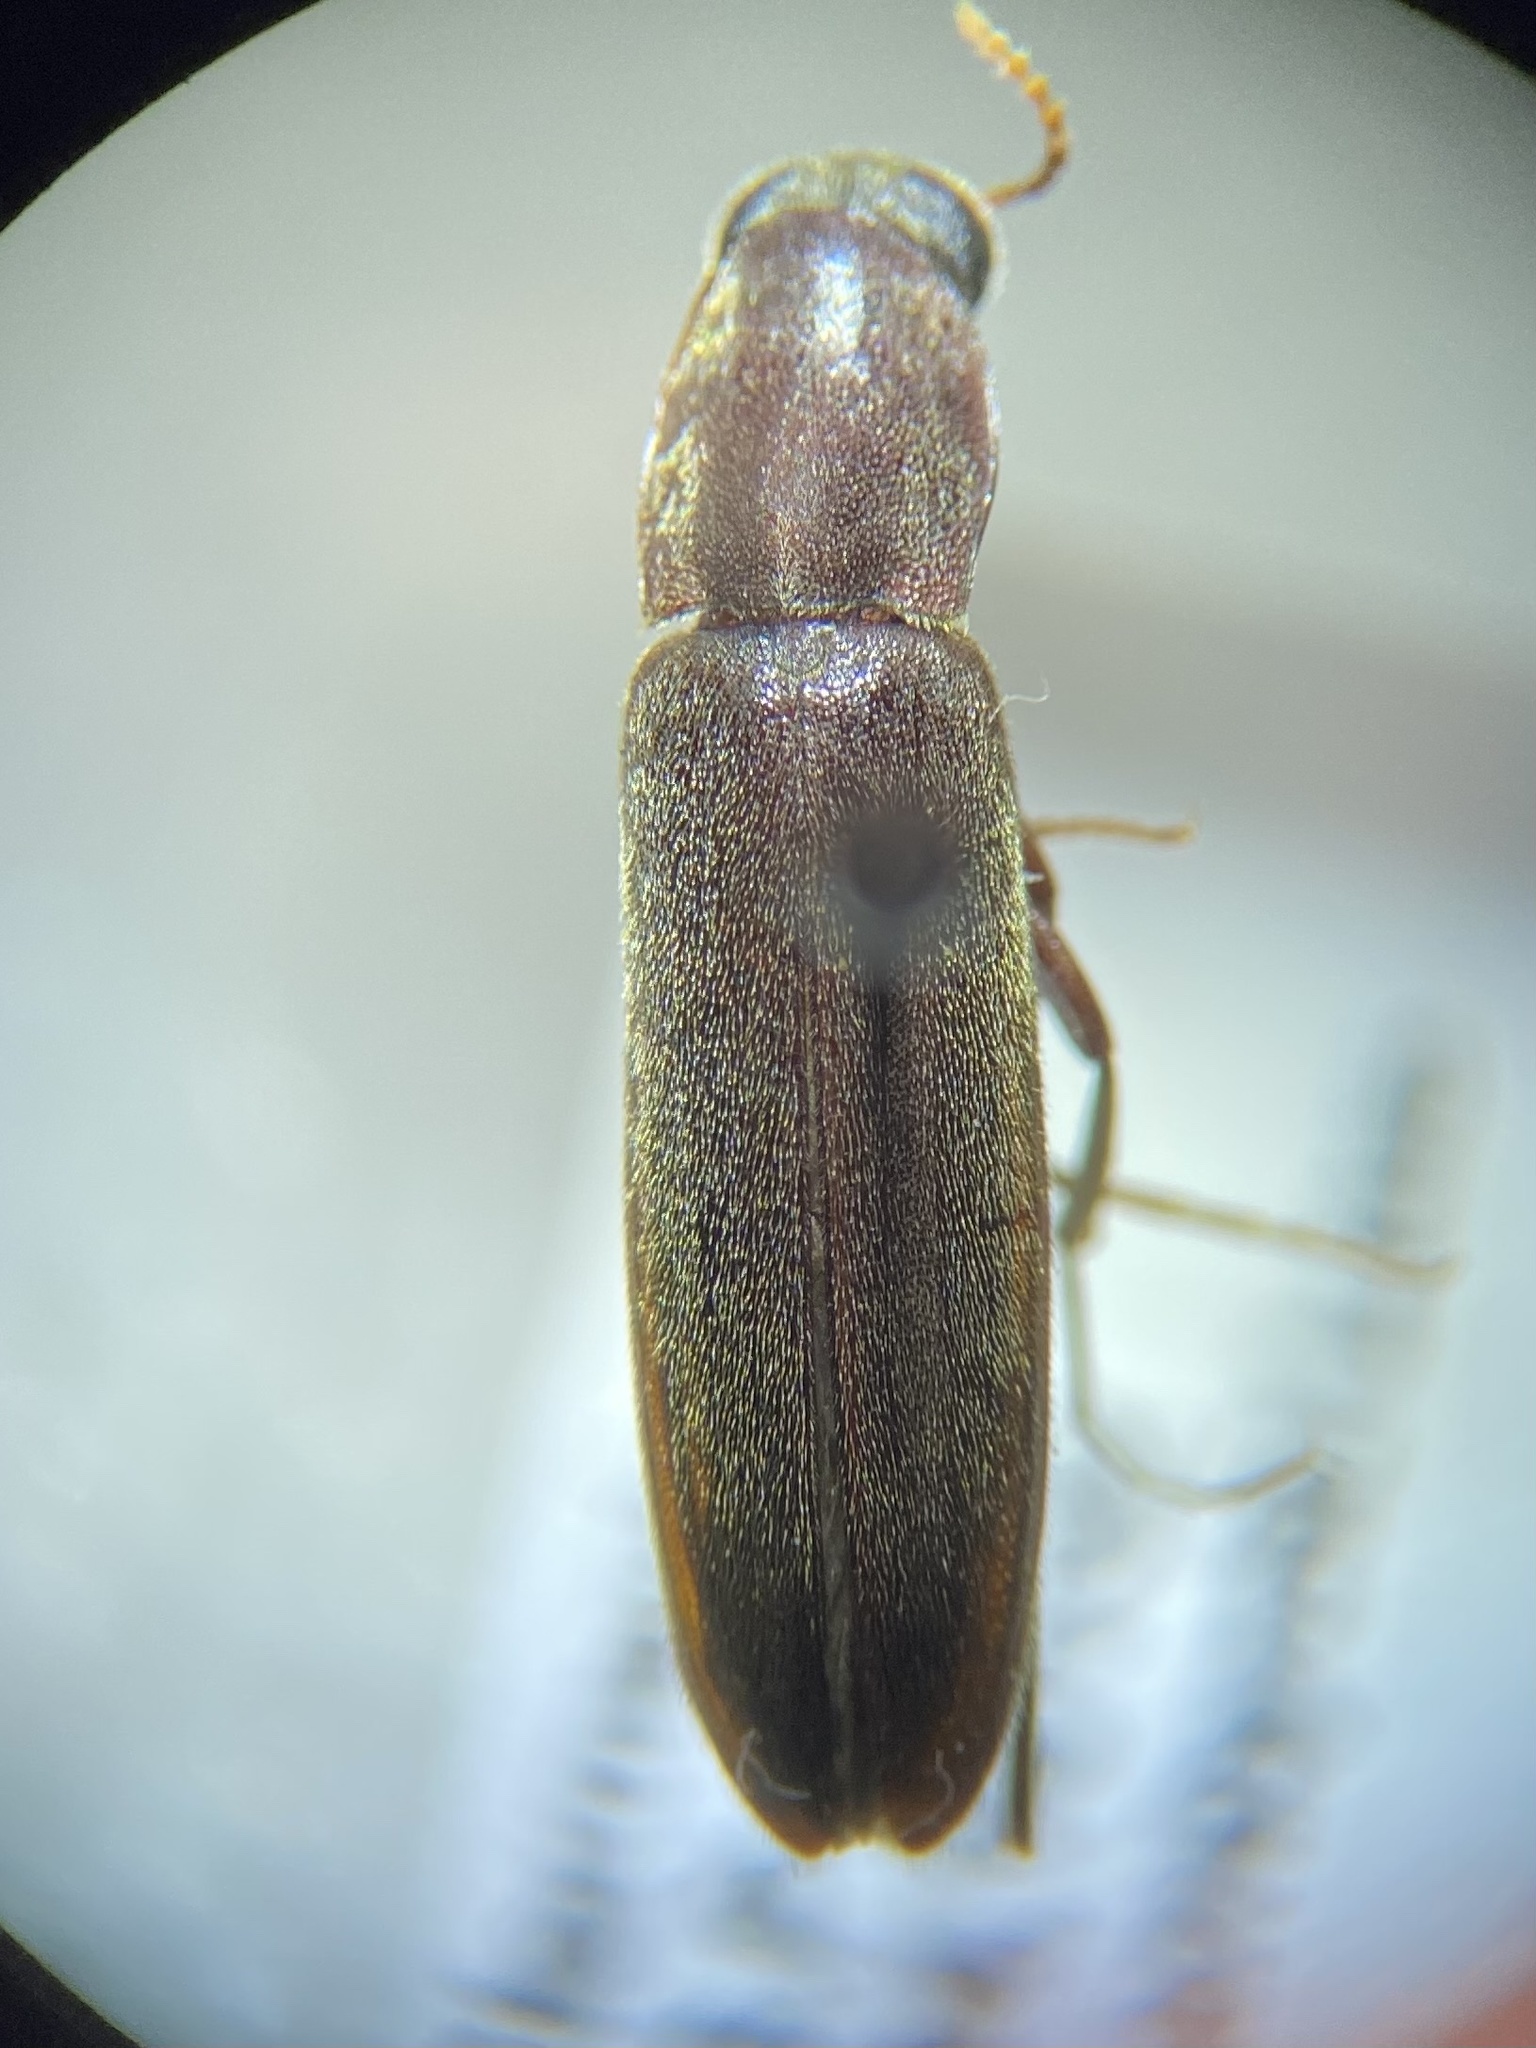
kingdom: Animalia
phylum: Arthropoda
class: Insecta
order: Coleoptera
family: Lymexylidae
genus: Melittomma
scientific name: Melittomma sericeum
